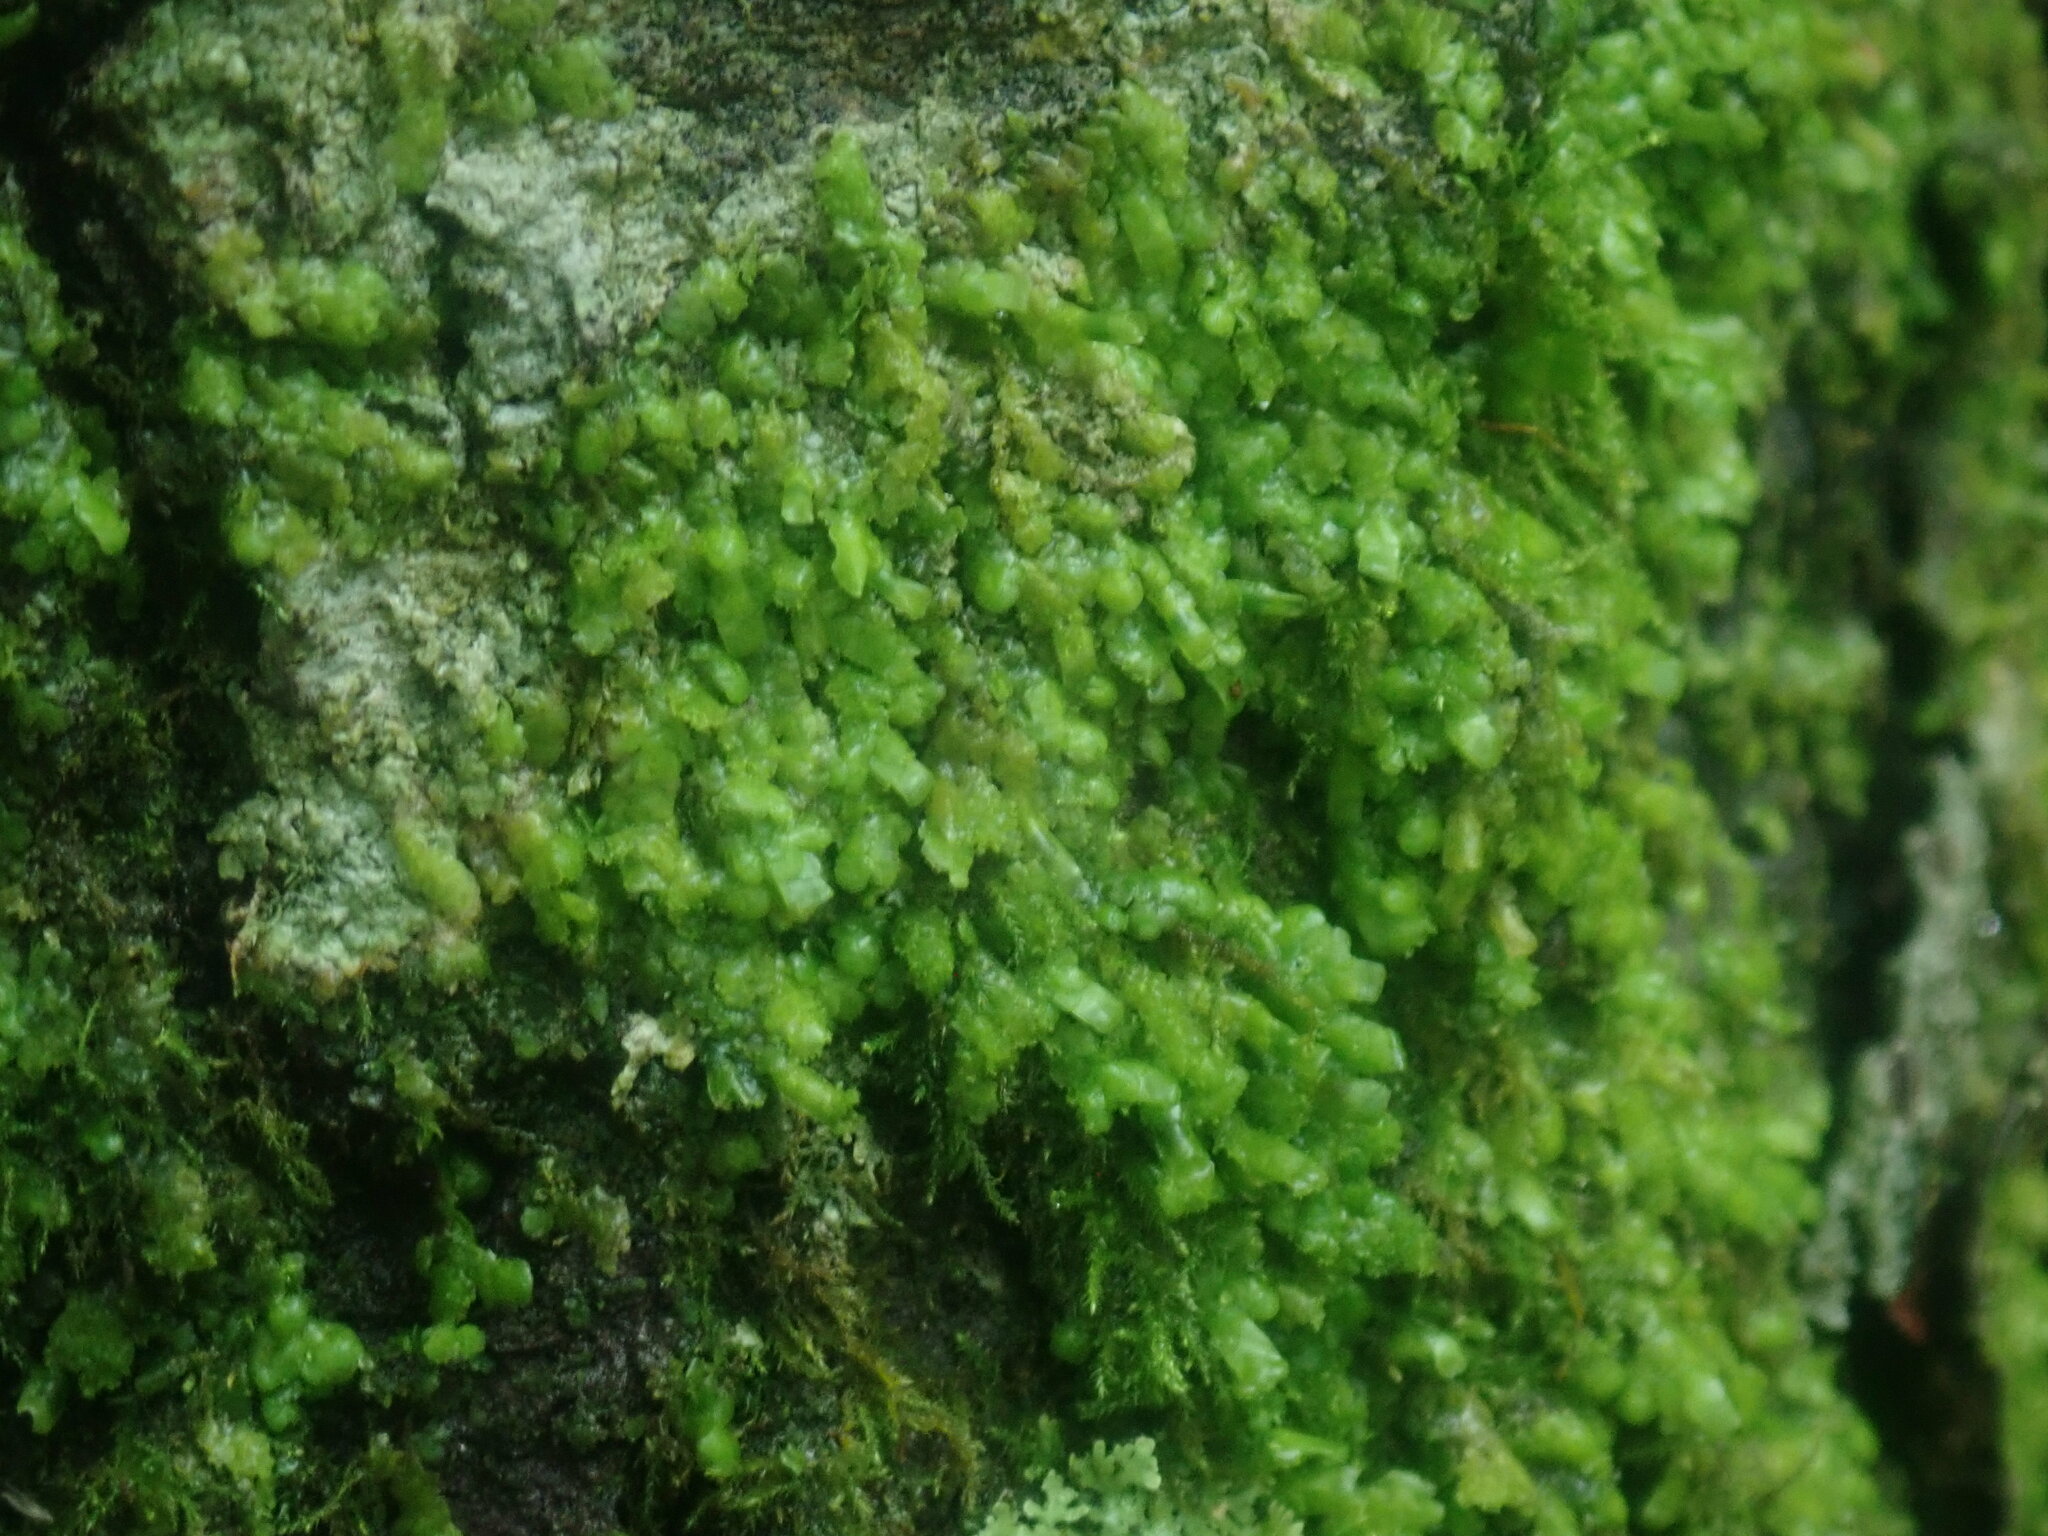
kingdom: Plantae
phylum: Marchantiophyta
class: Jungermanniopsida
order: Porellales
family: Radulaceae
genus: Radula
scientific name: Radula complanata
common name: Flat-leaved scalewort
